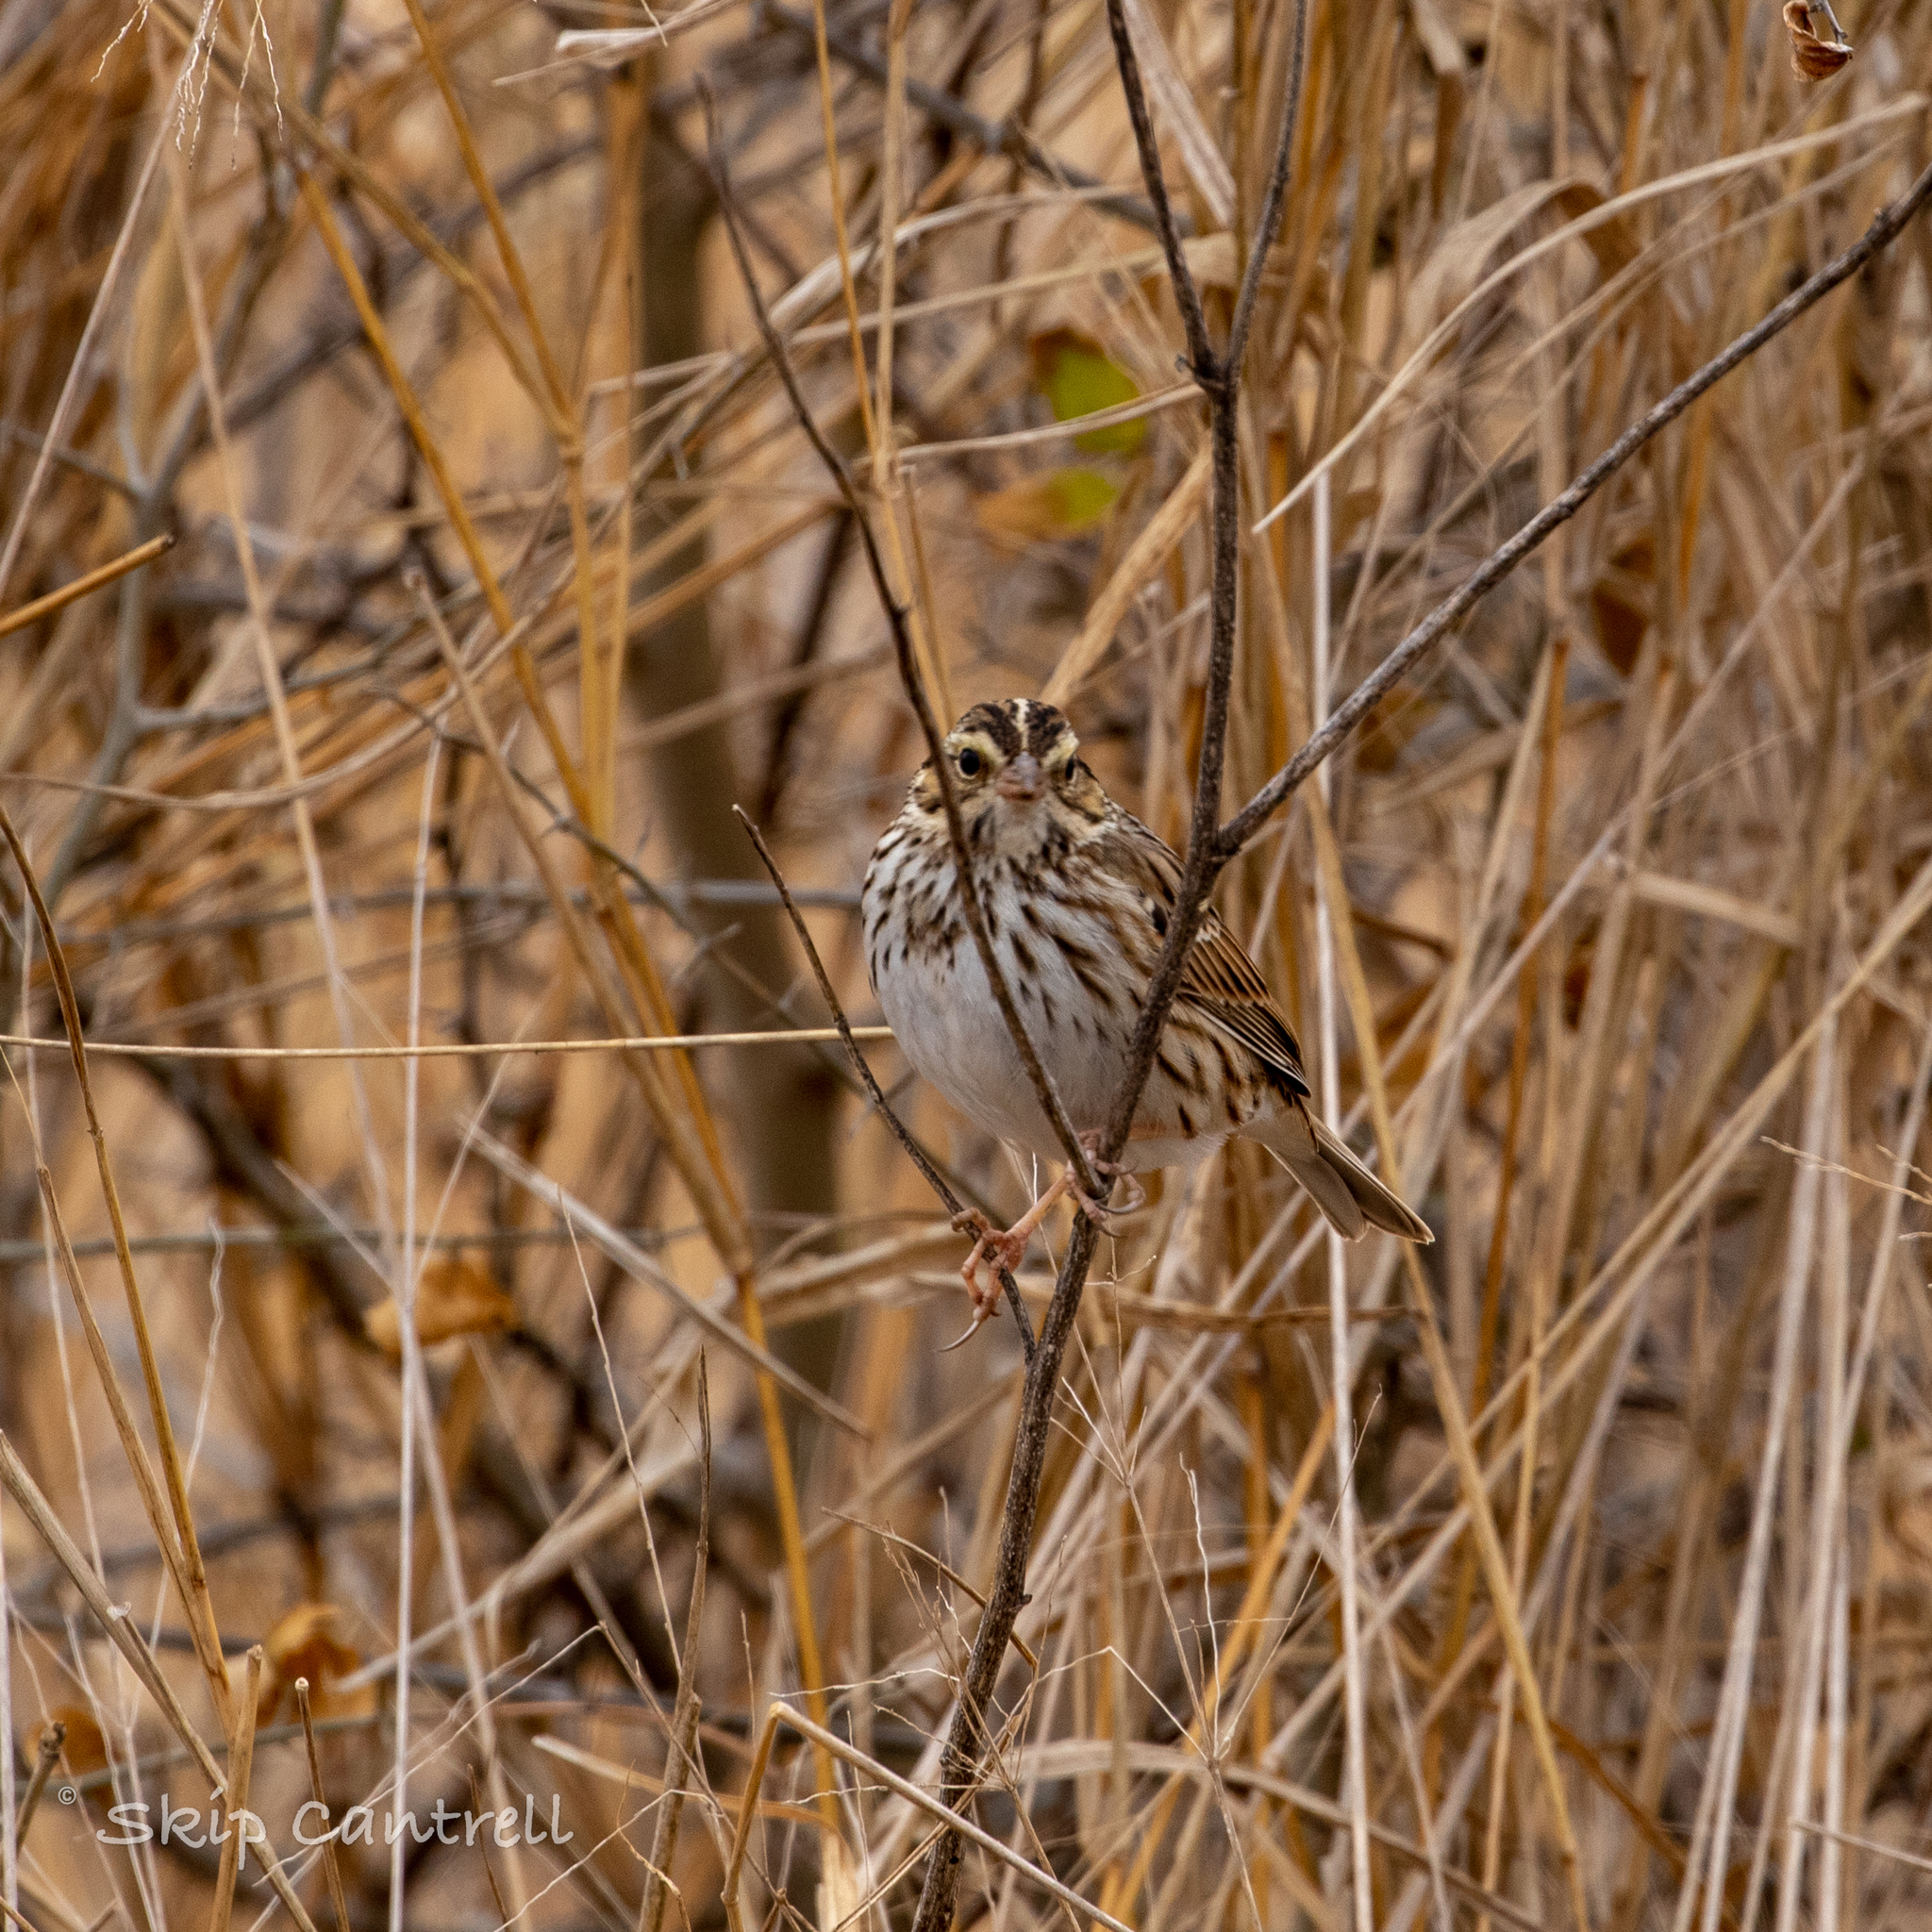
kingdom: Animalia
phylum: Chordata
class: Aves
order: Passeriformes
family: Passerellidae
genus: Passerculus
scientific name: Passerculus sandwichensis
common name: Savannah sparrow
